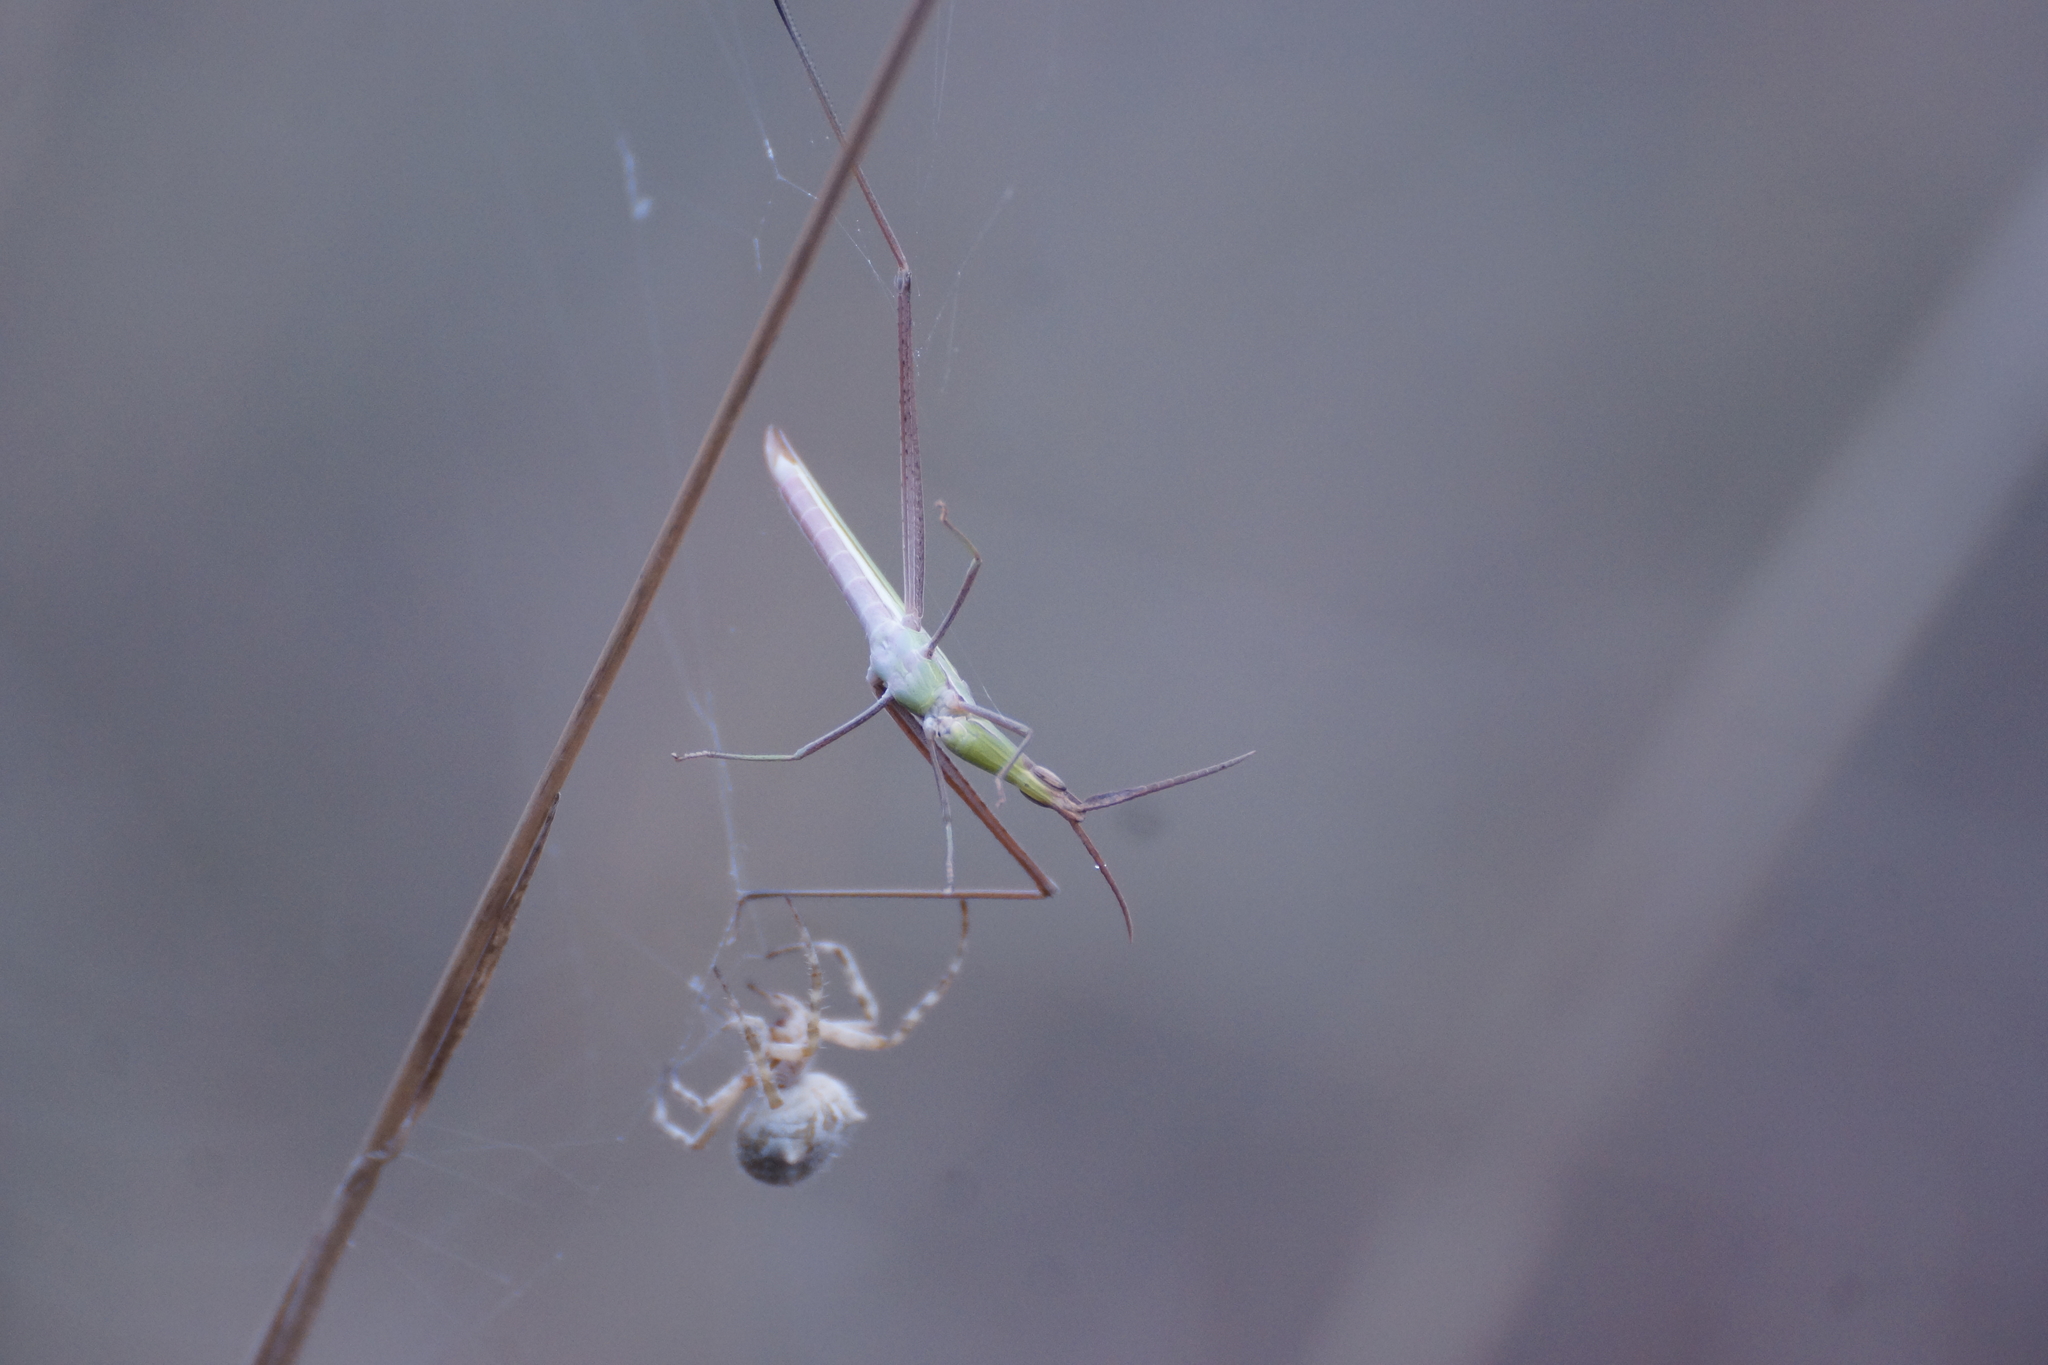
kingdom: Animalia
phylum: Arthropoda
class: Insecta
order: Orthoptera
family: Acrididae
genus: Acrida
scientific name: Acrida conica
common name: Giant green slantface
